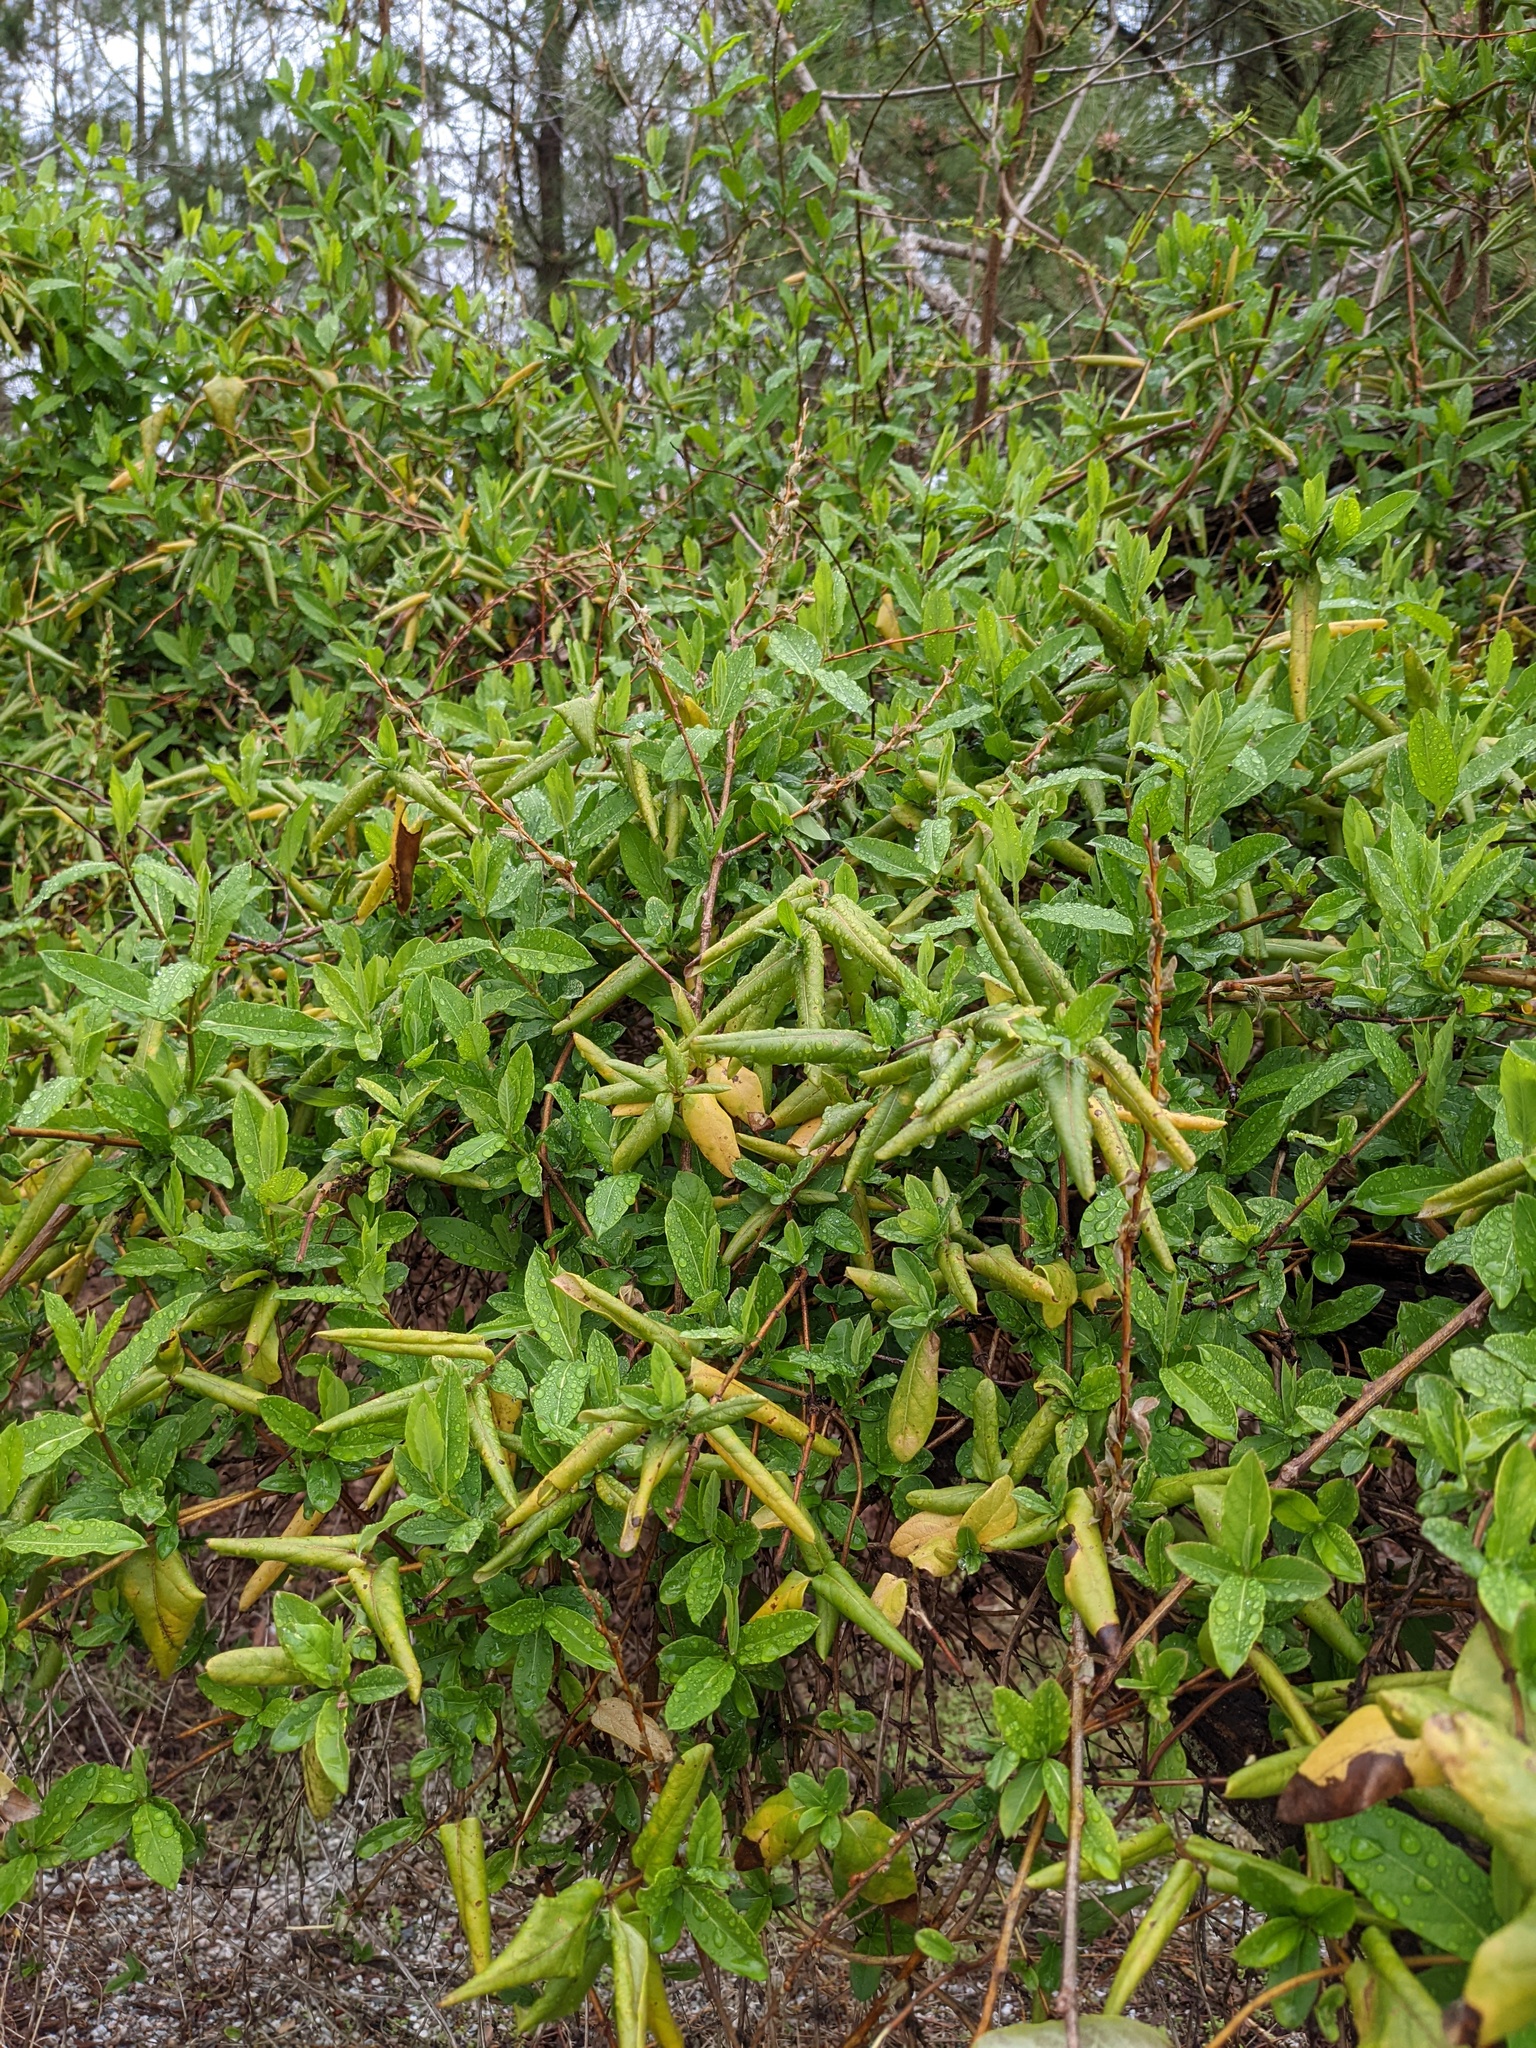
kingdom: Plantae
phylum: Tracheophyta
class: Magnoliopsida
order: Dipsacales
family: Caprifoliaceae
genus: Lonicera
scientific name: Lonicera japonica
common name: Japanese honeysuckle
